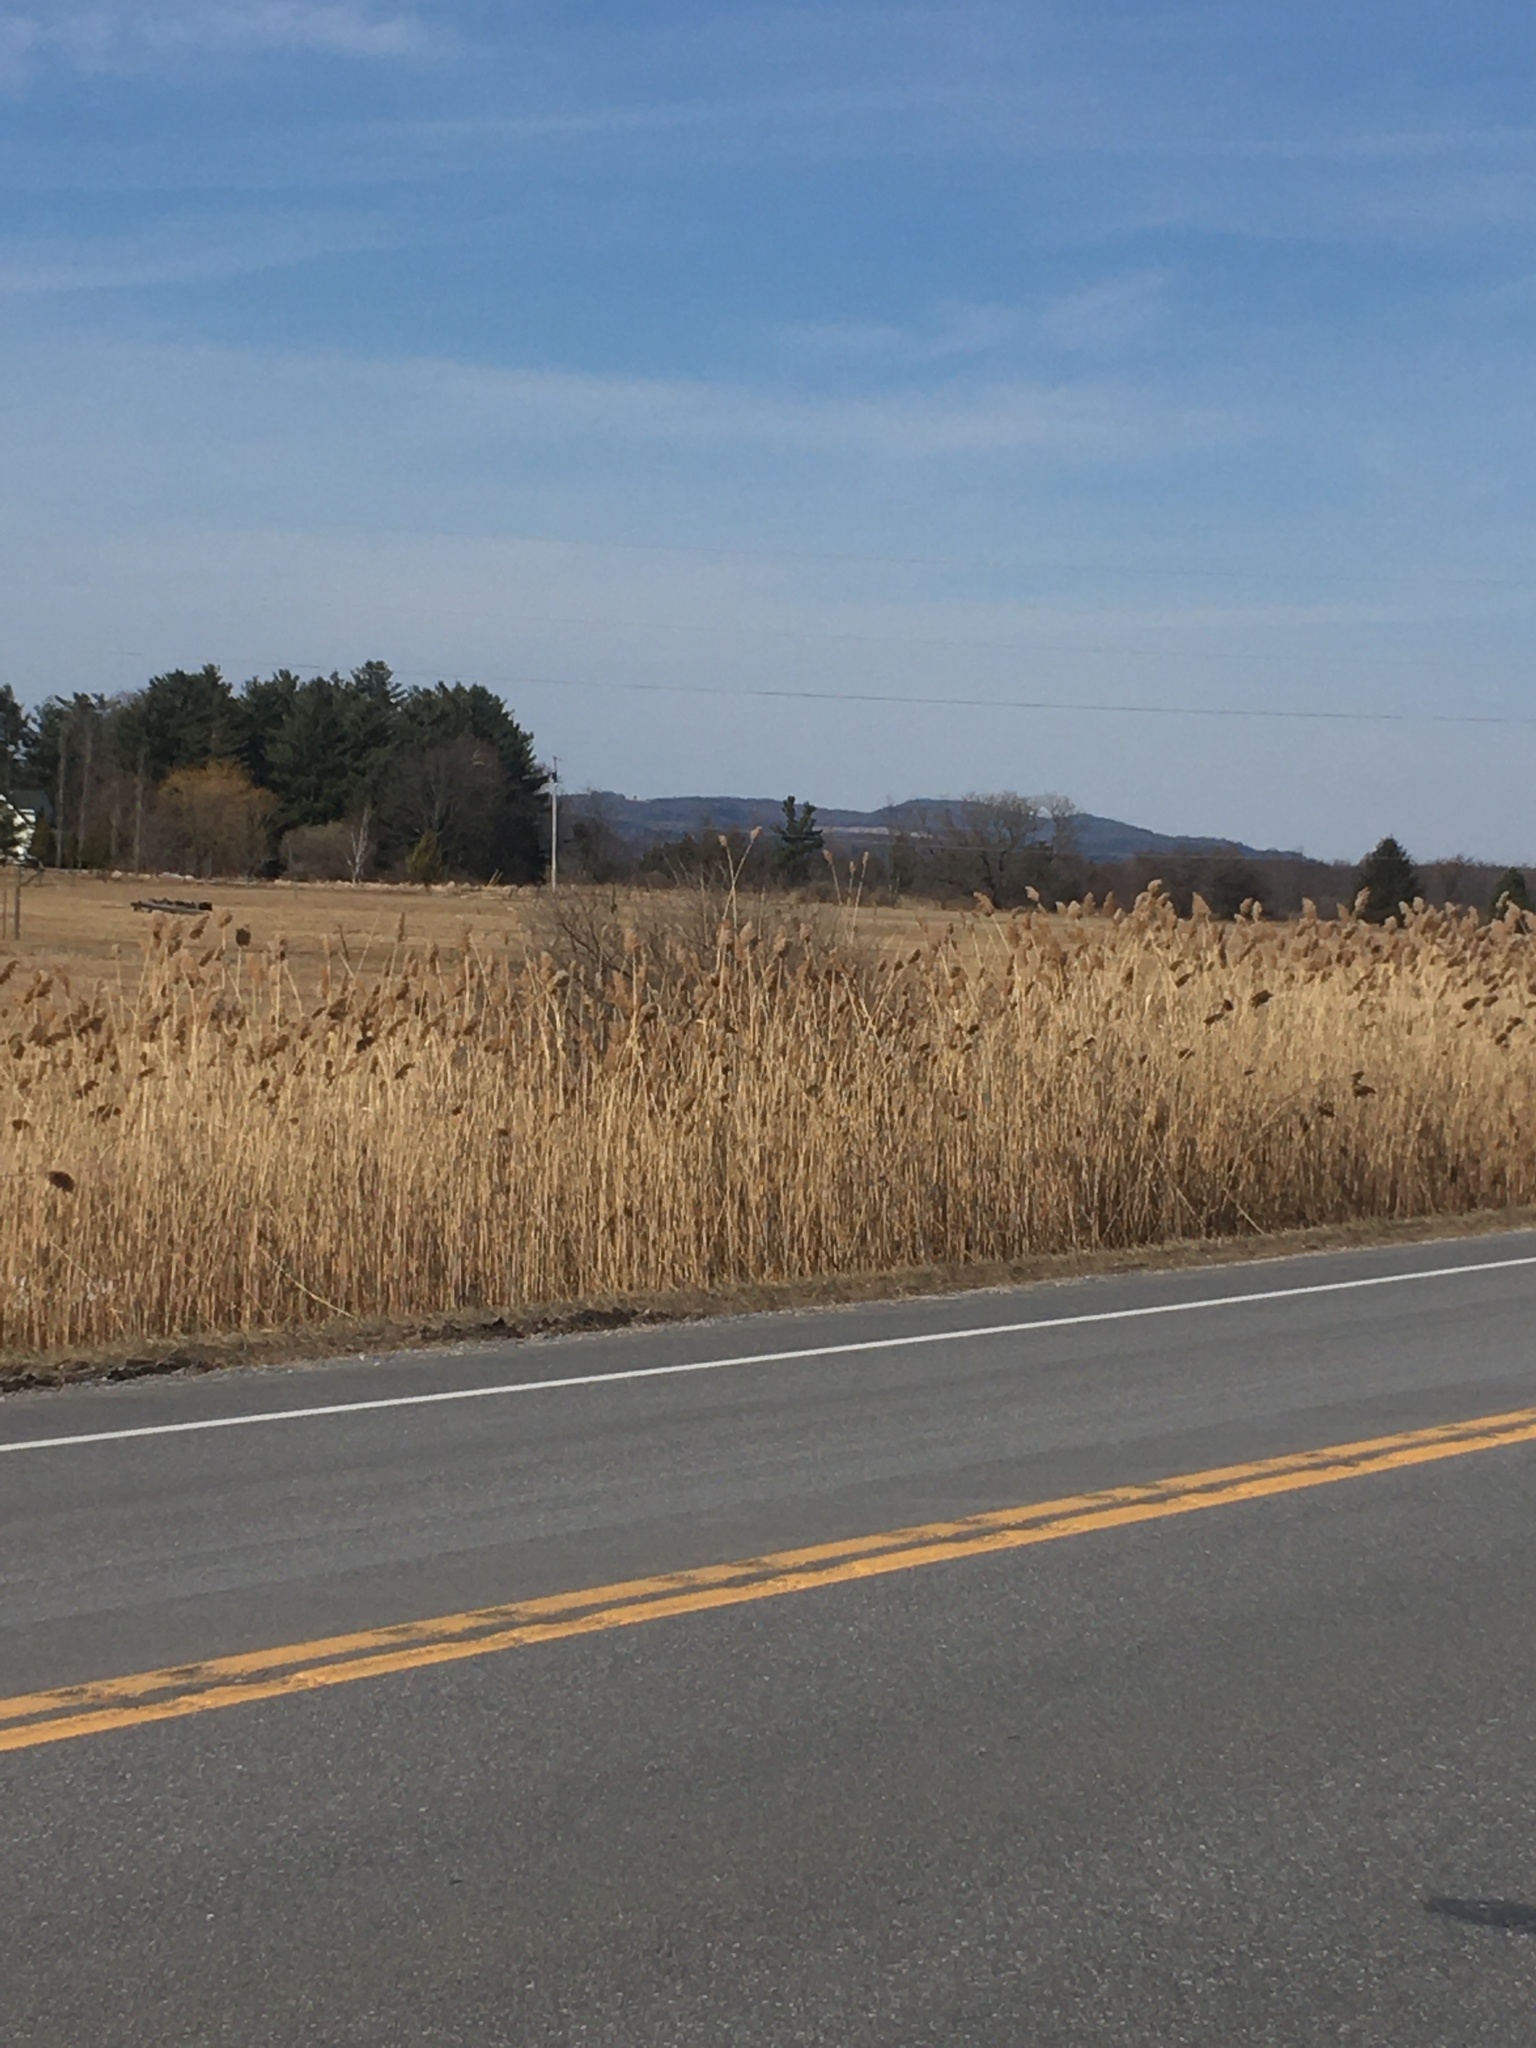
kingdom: Plantae
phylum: Tracheophyta
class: Liliopsida
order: Poales
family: Poaceae
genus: Phragmites
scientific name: Phragmites australis
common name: Common reed
